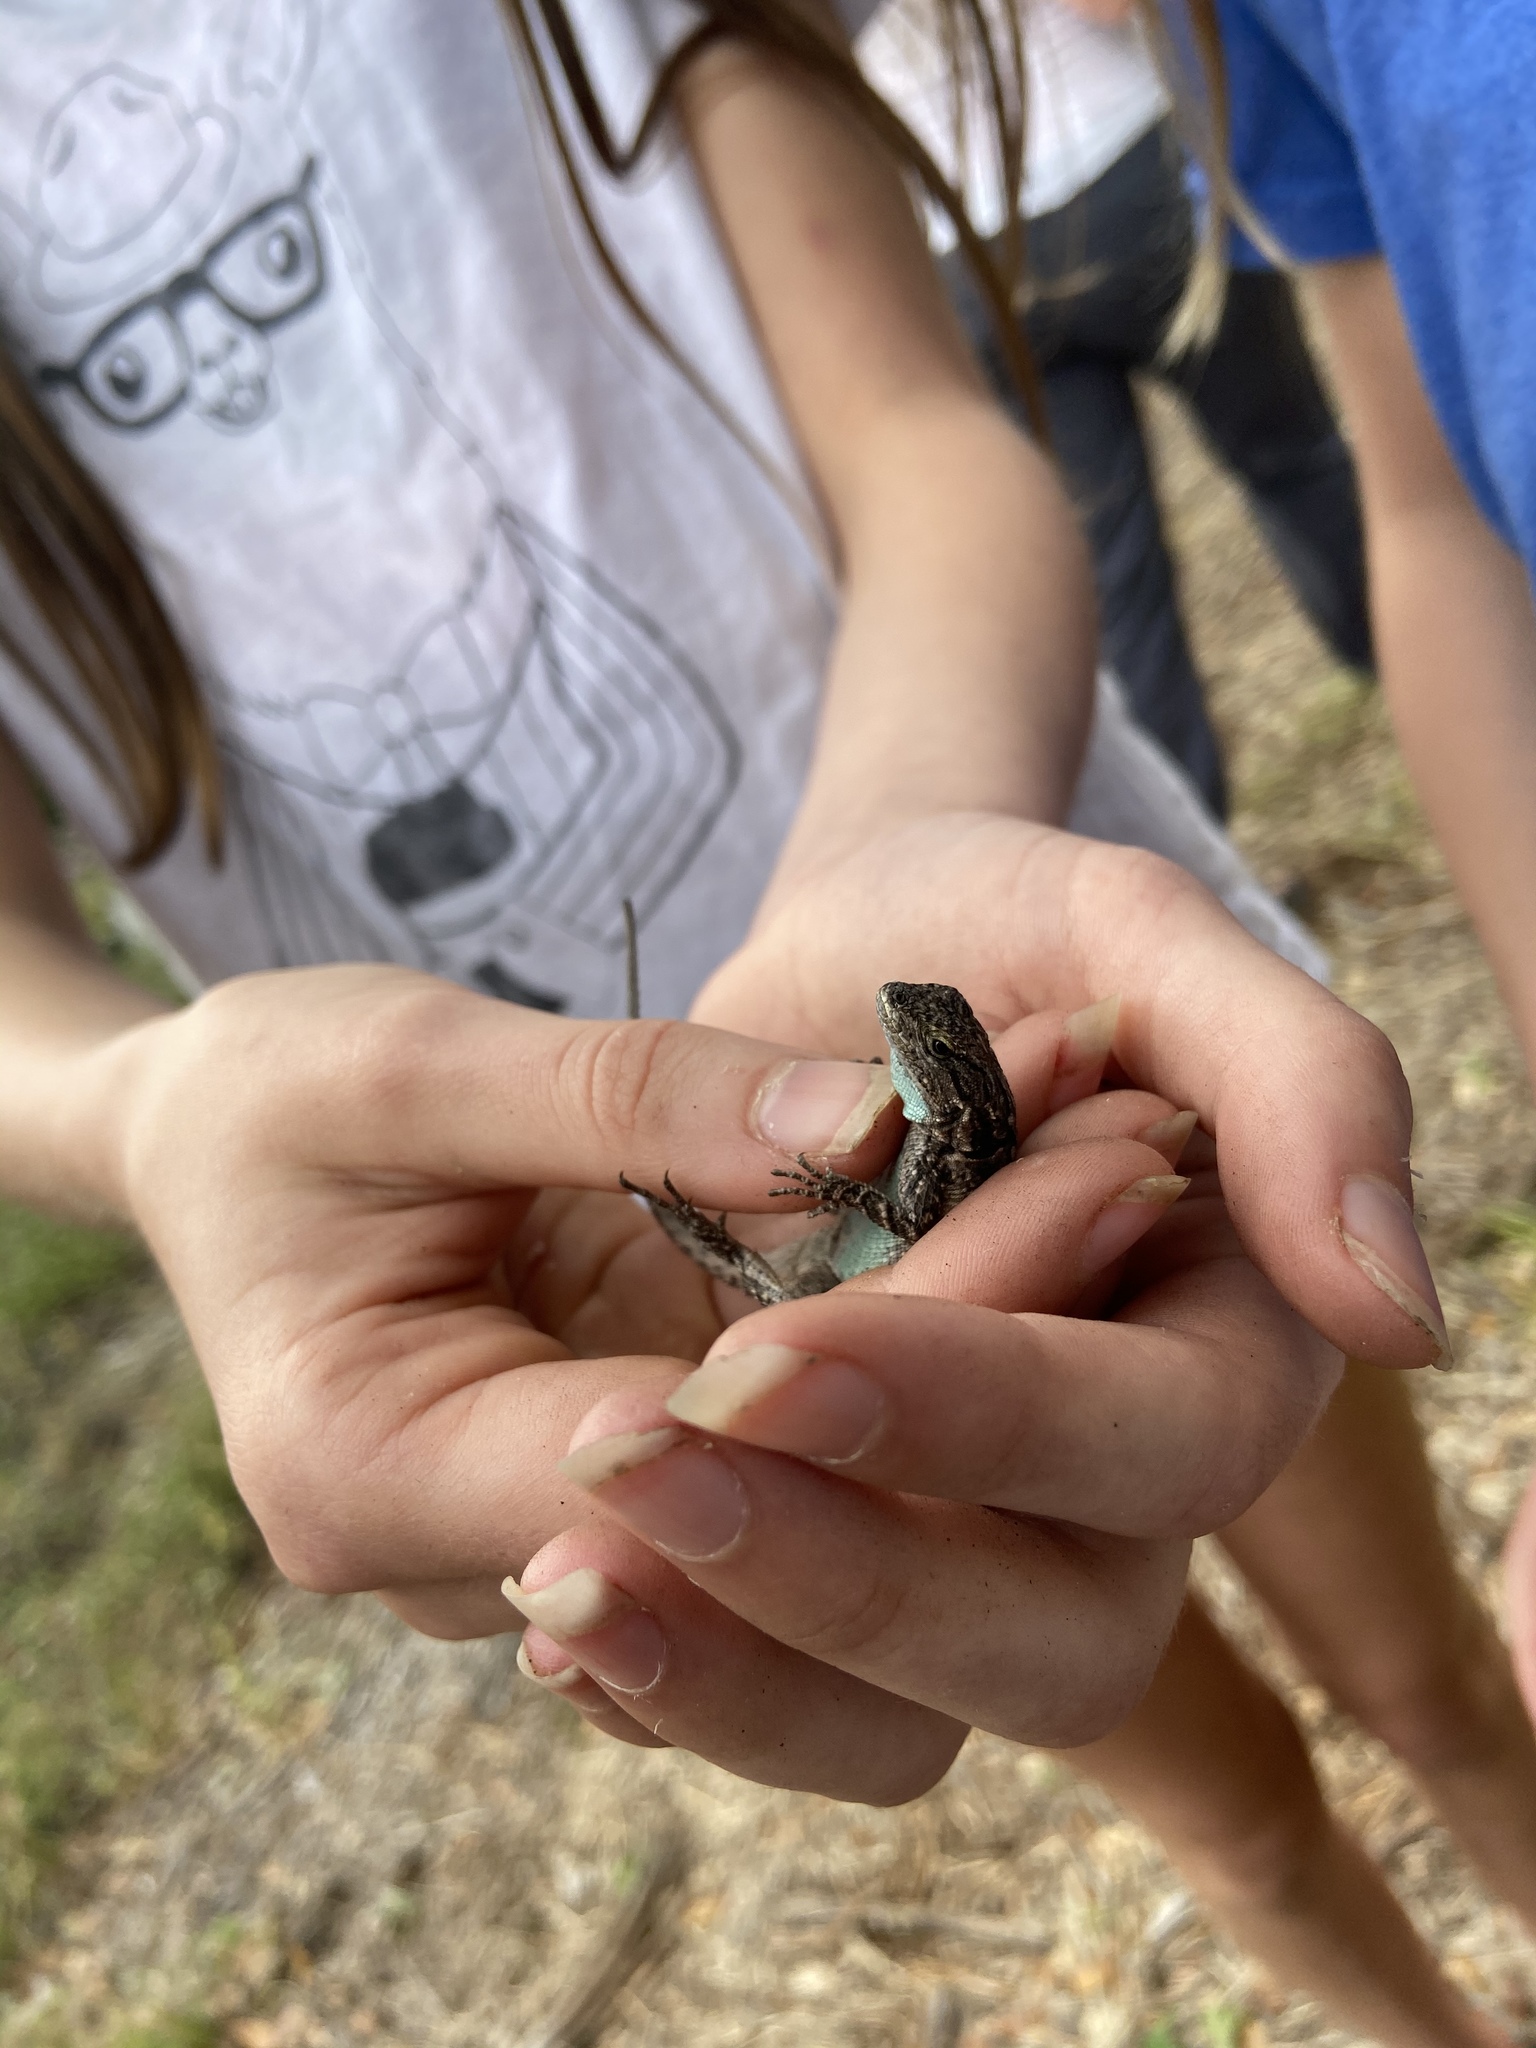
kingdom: Animalia
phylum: Chordata
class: Squamata
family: Phrynosomatidae
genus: Sceloporus
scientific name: Sceloporus olivaceus
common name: Texas spiny lizard
